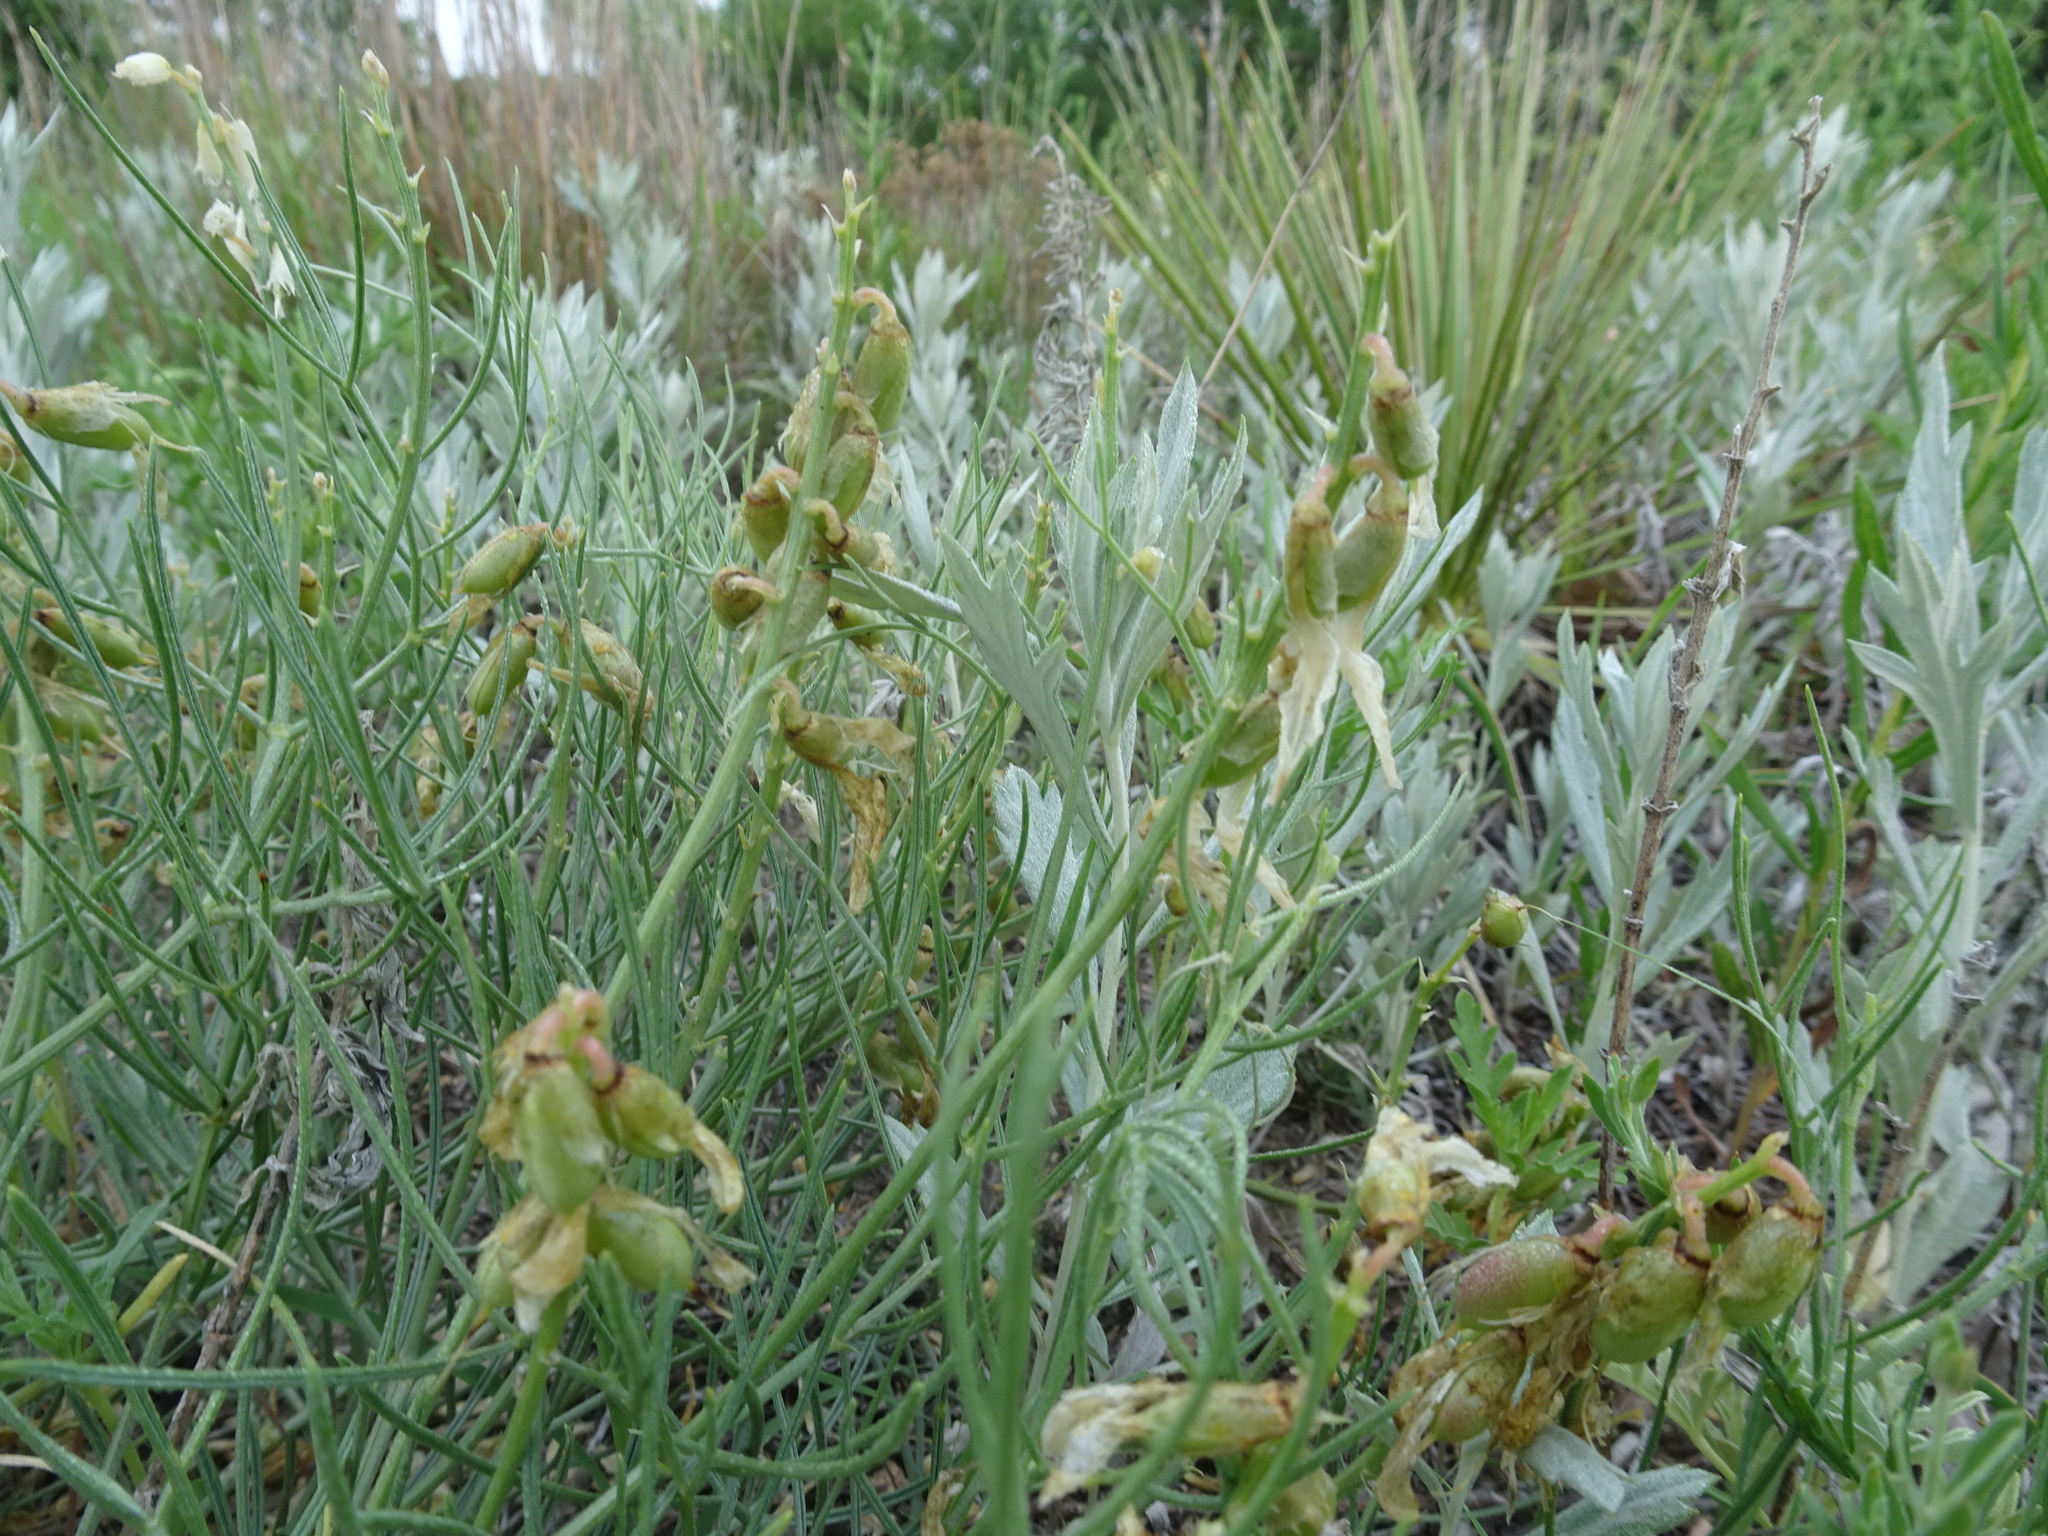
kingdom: Plantae
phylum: Tracheophyta
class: Magnoliopsida
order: Fabales
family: Fabaceae
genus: Astragalus
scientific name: Astragalus pectinatus
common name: Tine-leaf milk-vetch
